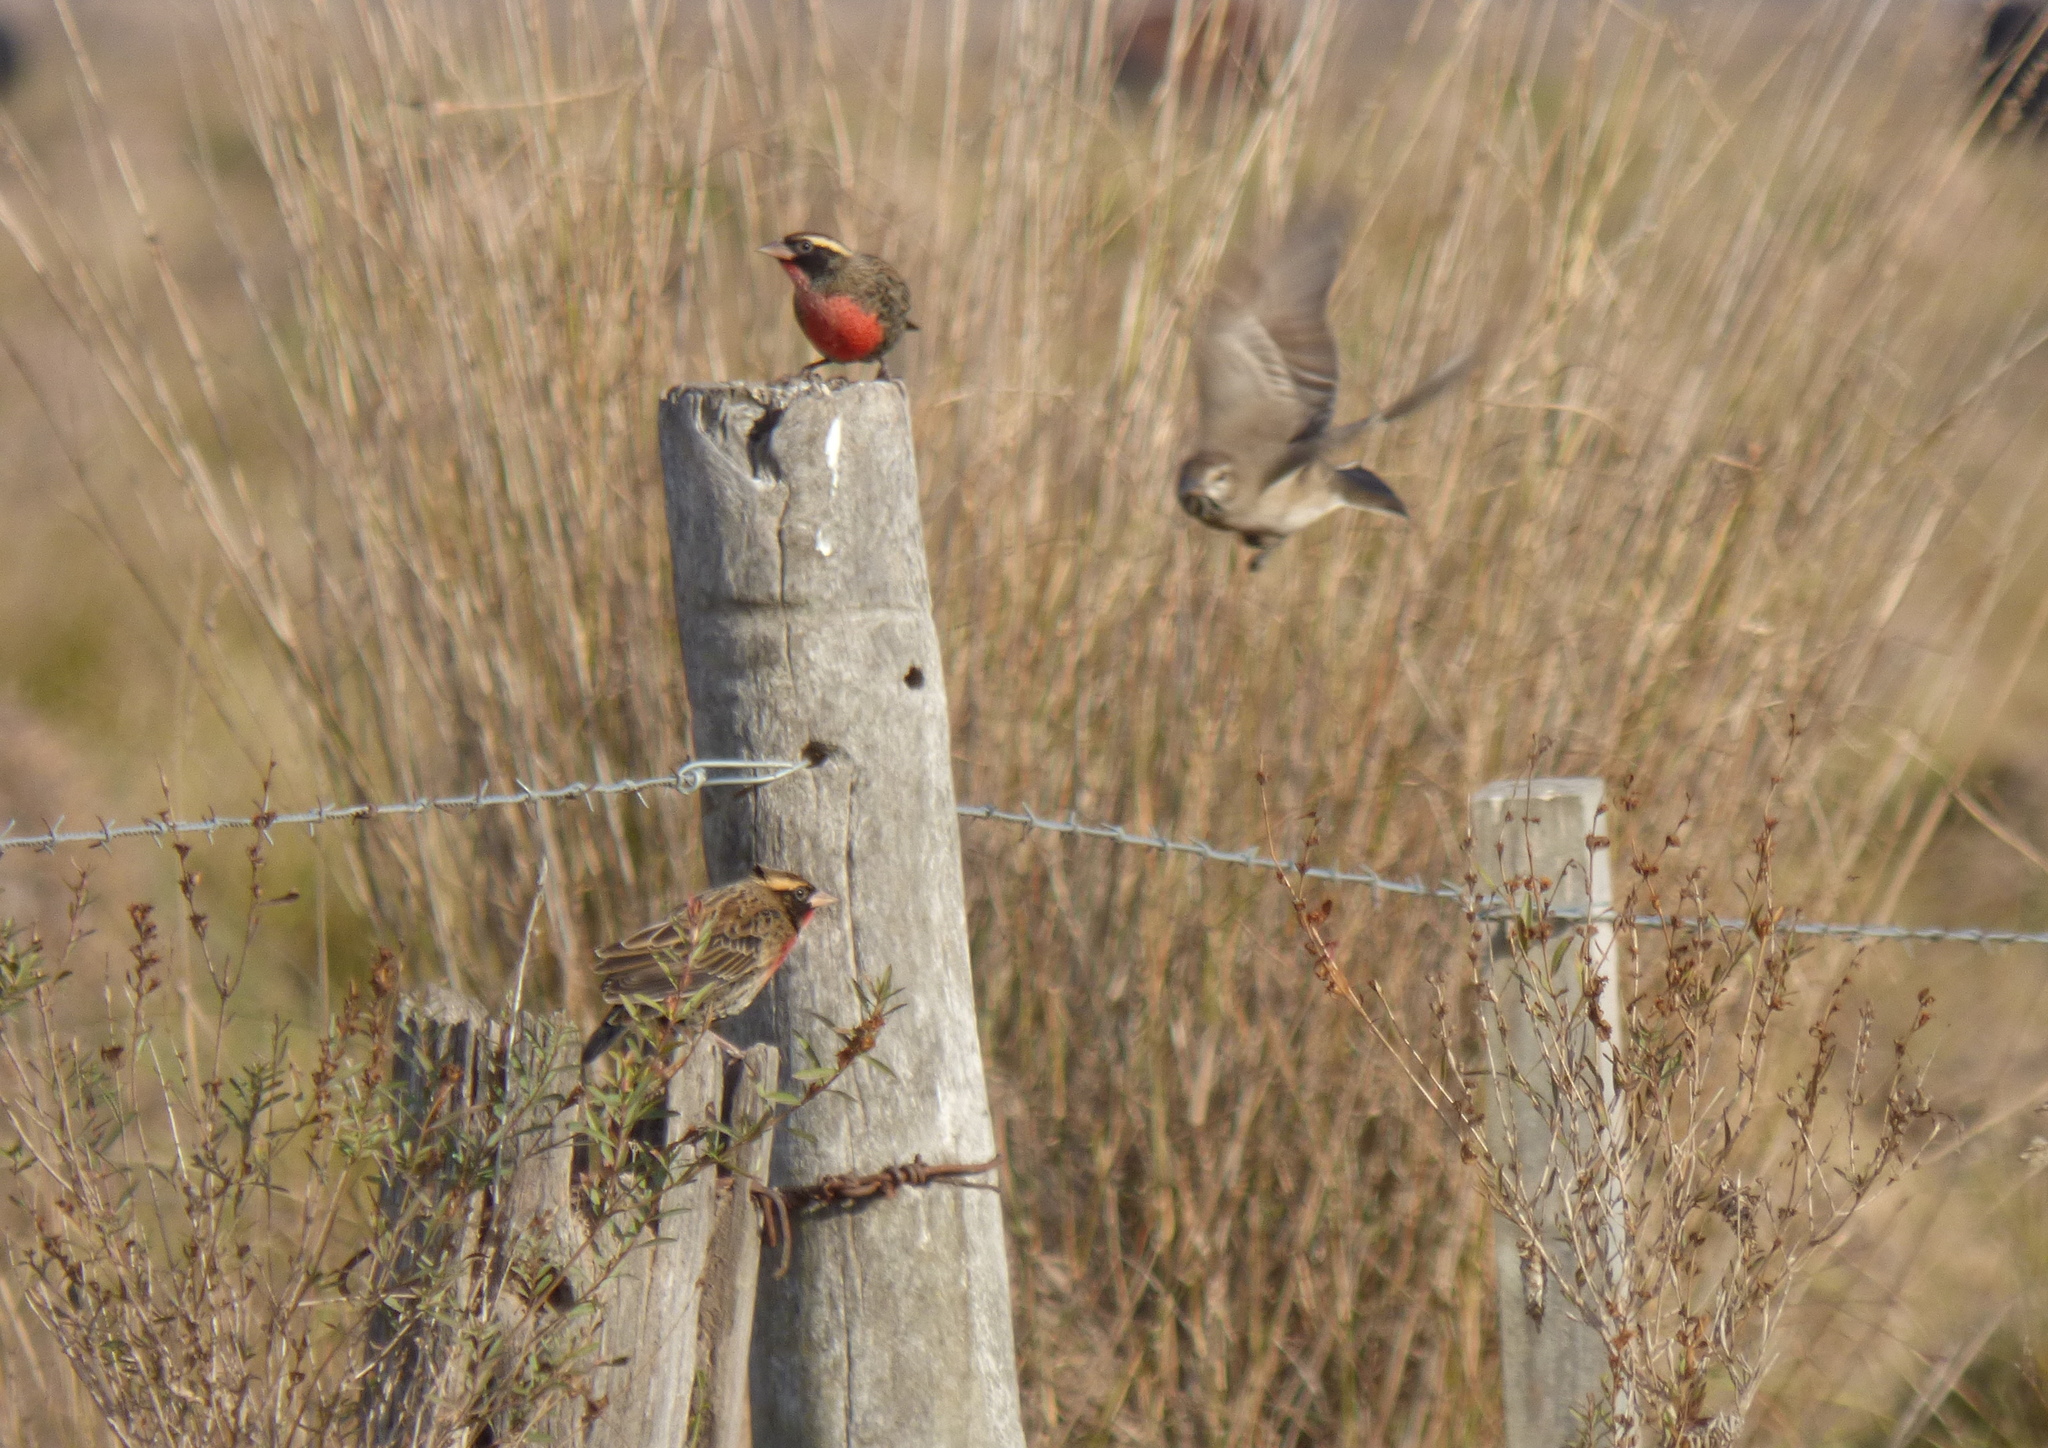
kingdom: Animalia
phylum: Chordata
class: Aves
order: Passeriformes
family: Icteridae
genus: Sturnella
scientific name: Sturnella superciliaris
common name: White-browed blackbird
